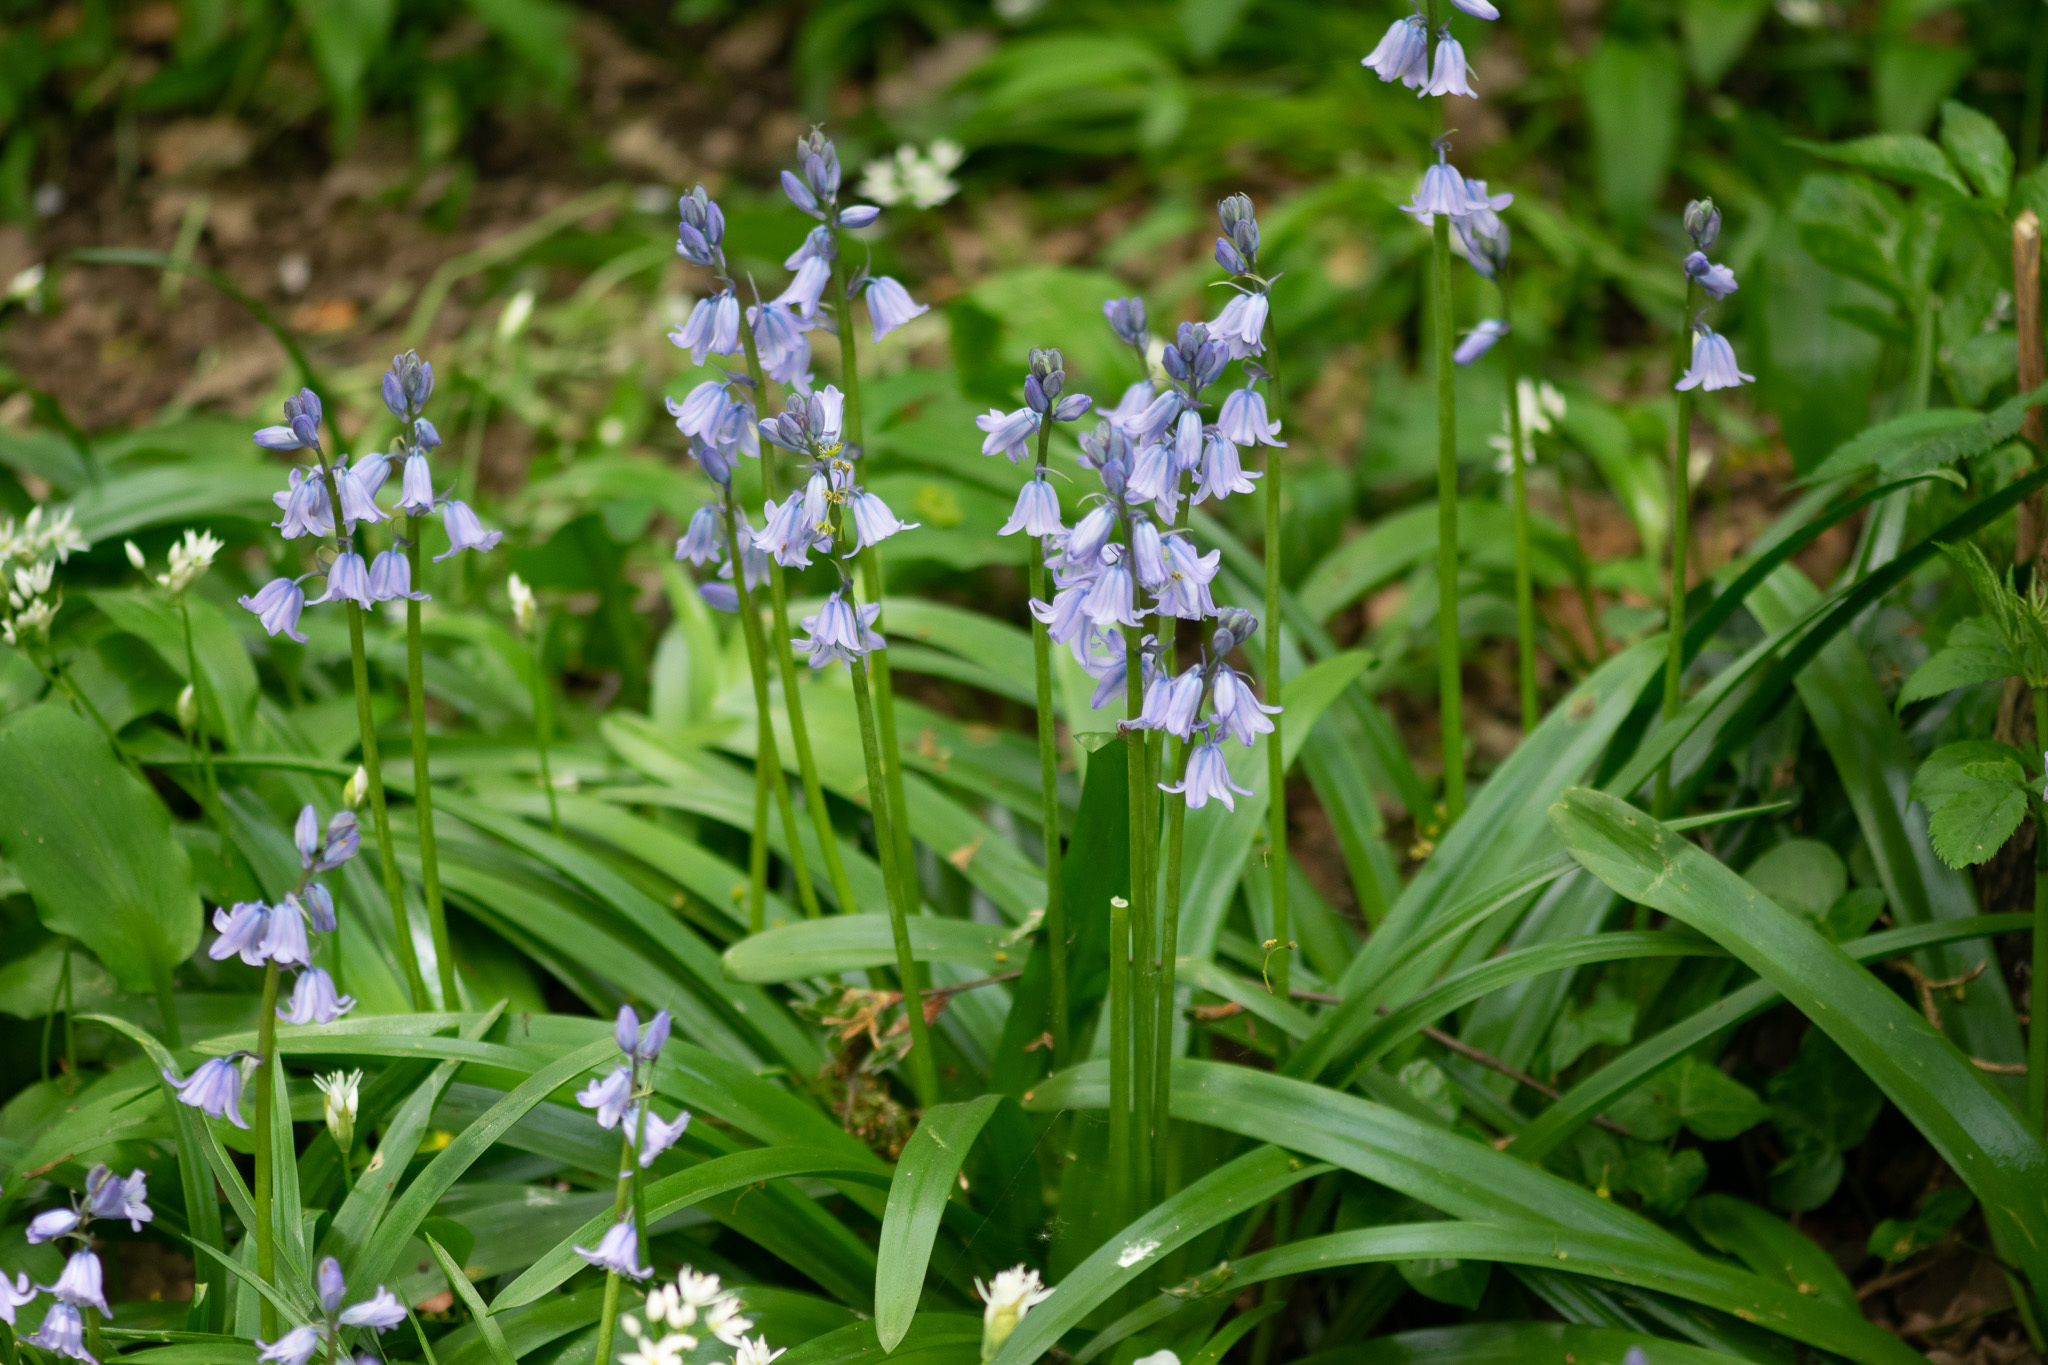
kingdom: Plantae
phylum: Tracheophyta
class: Liliopsida
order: Asparagales
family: Asparagaceae
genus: Hyacinthoides
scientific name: Hyacinthoides hispanica
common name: Spanish bluebell
